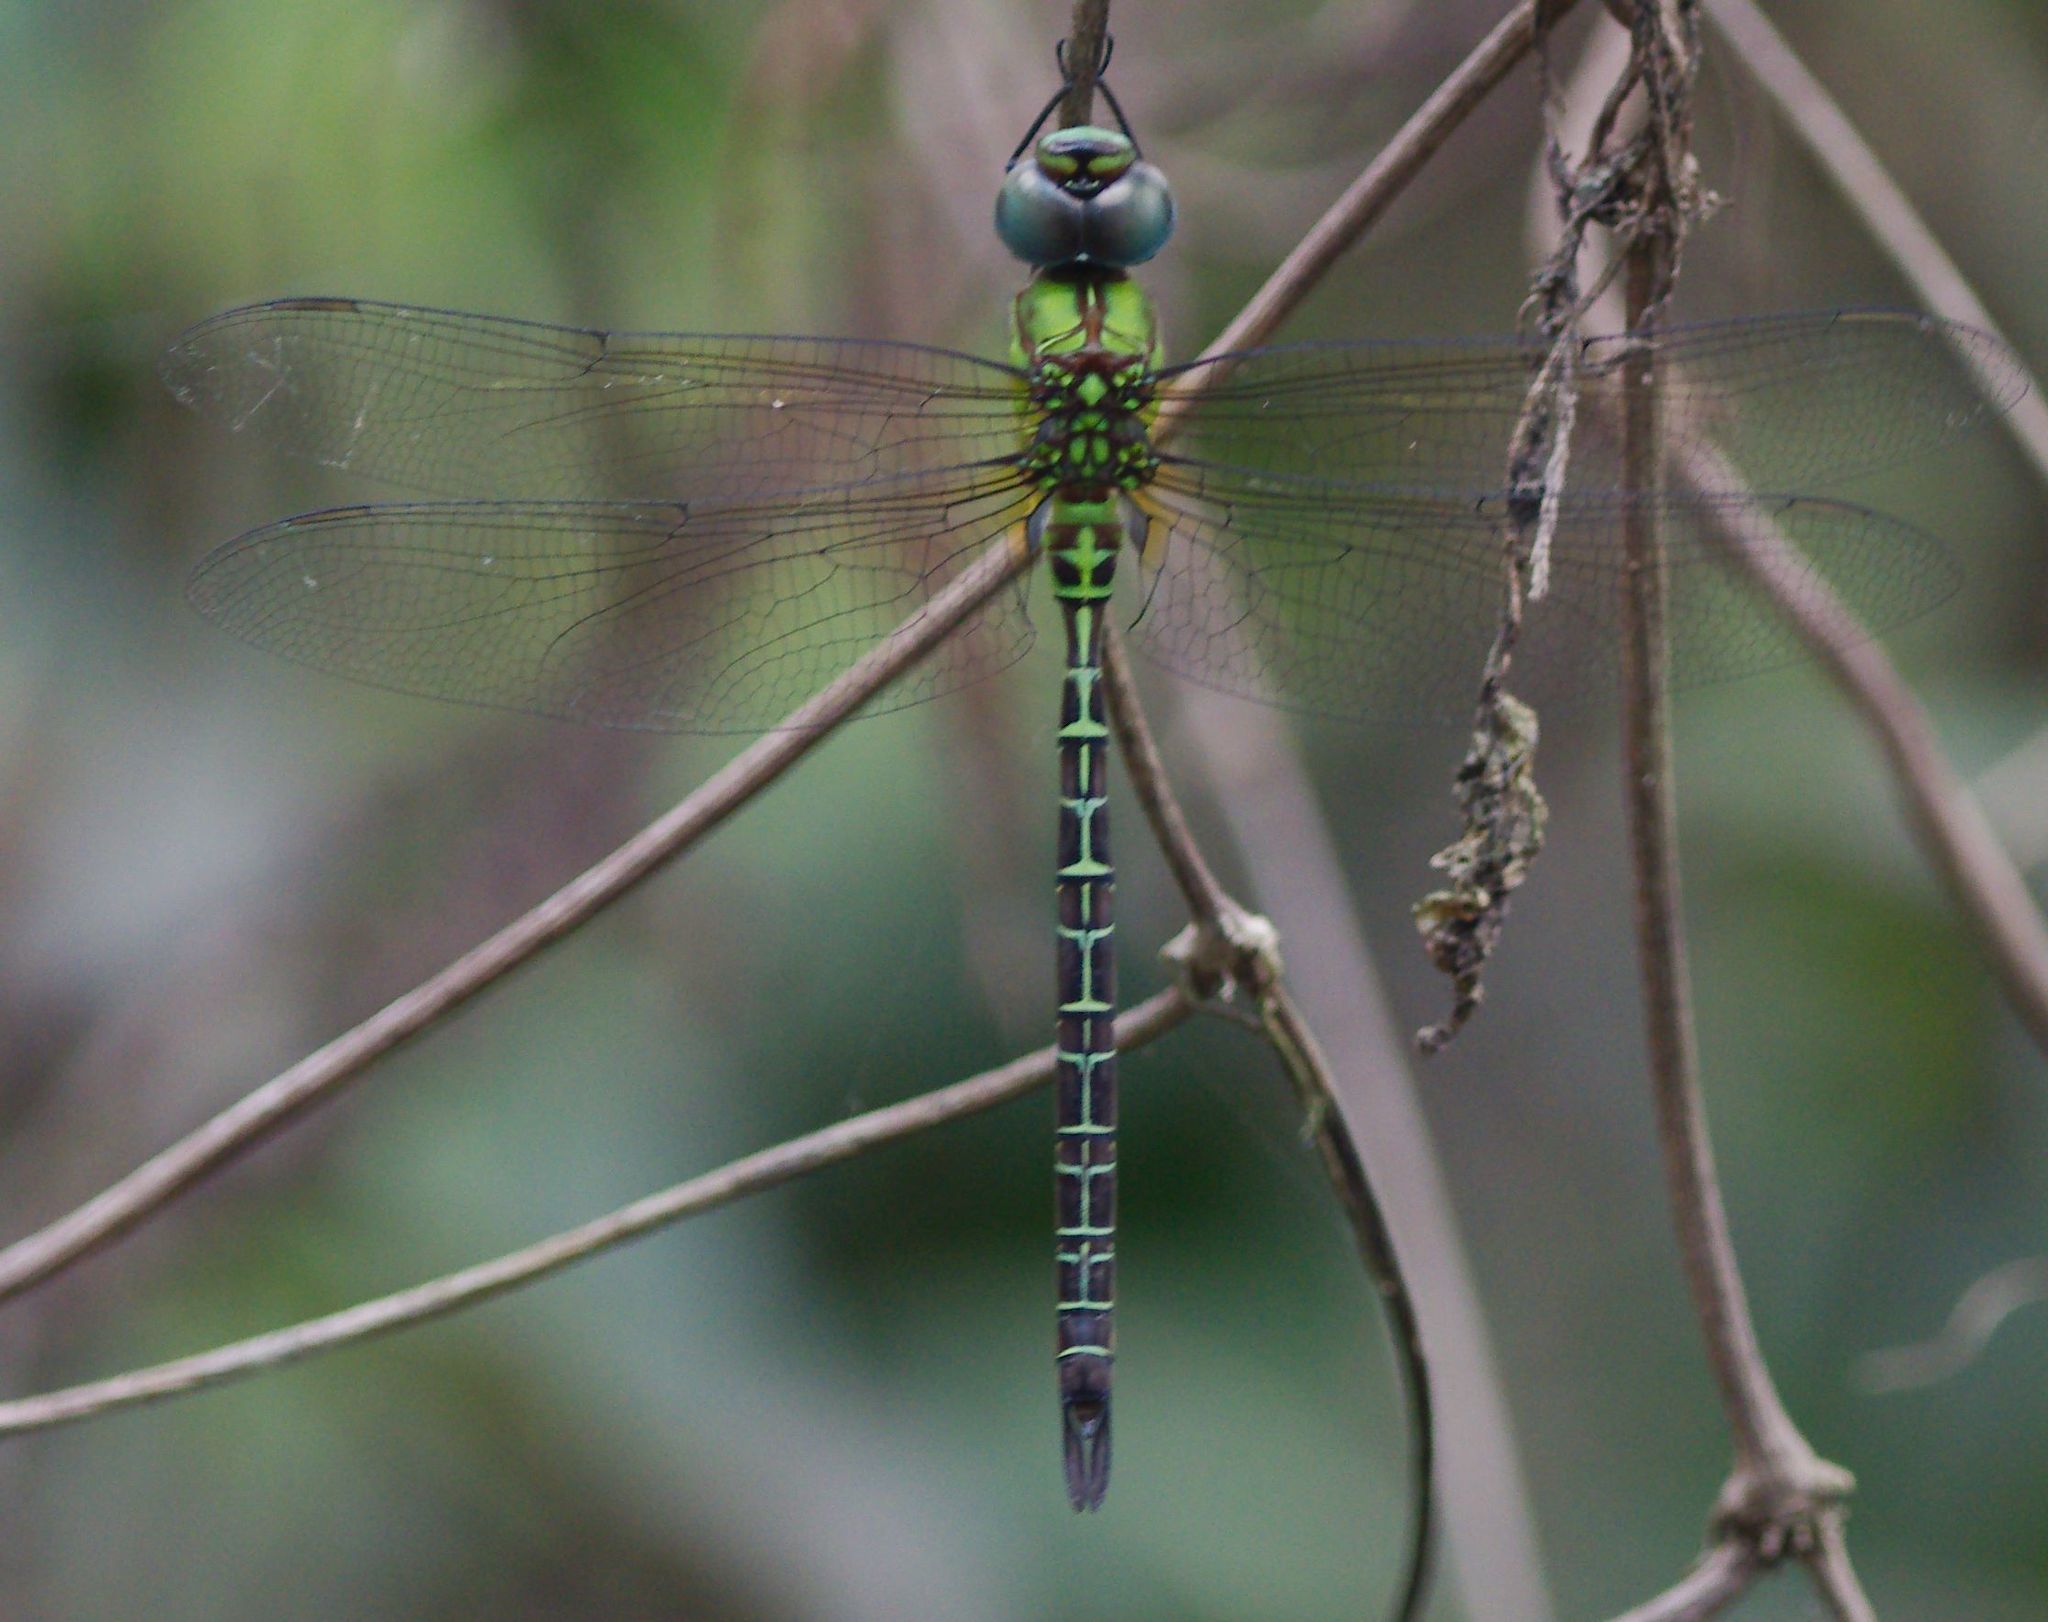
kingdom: Animalia
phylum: Arthropoda
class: Insecta
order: Odonata
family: Aeshnidae
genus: Coryphaeschna
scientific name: Coryphaeschna adnexa
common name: Blue-faced darner
